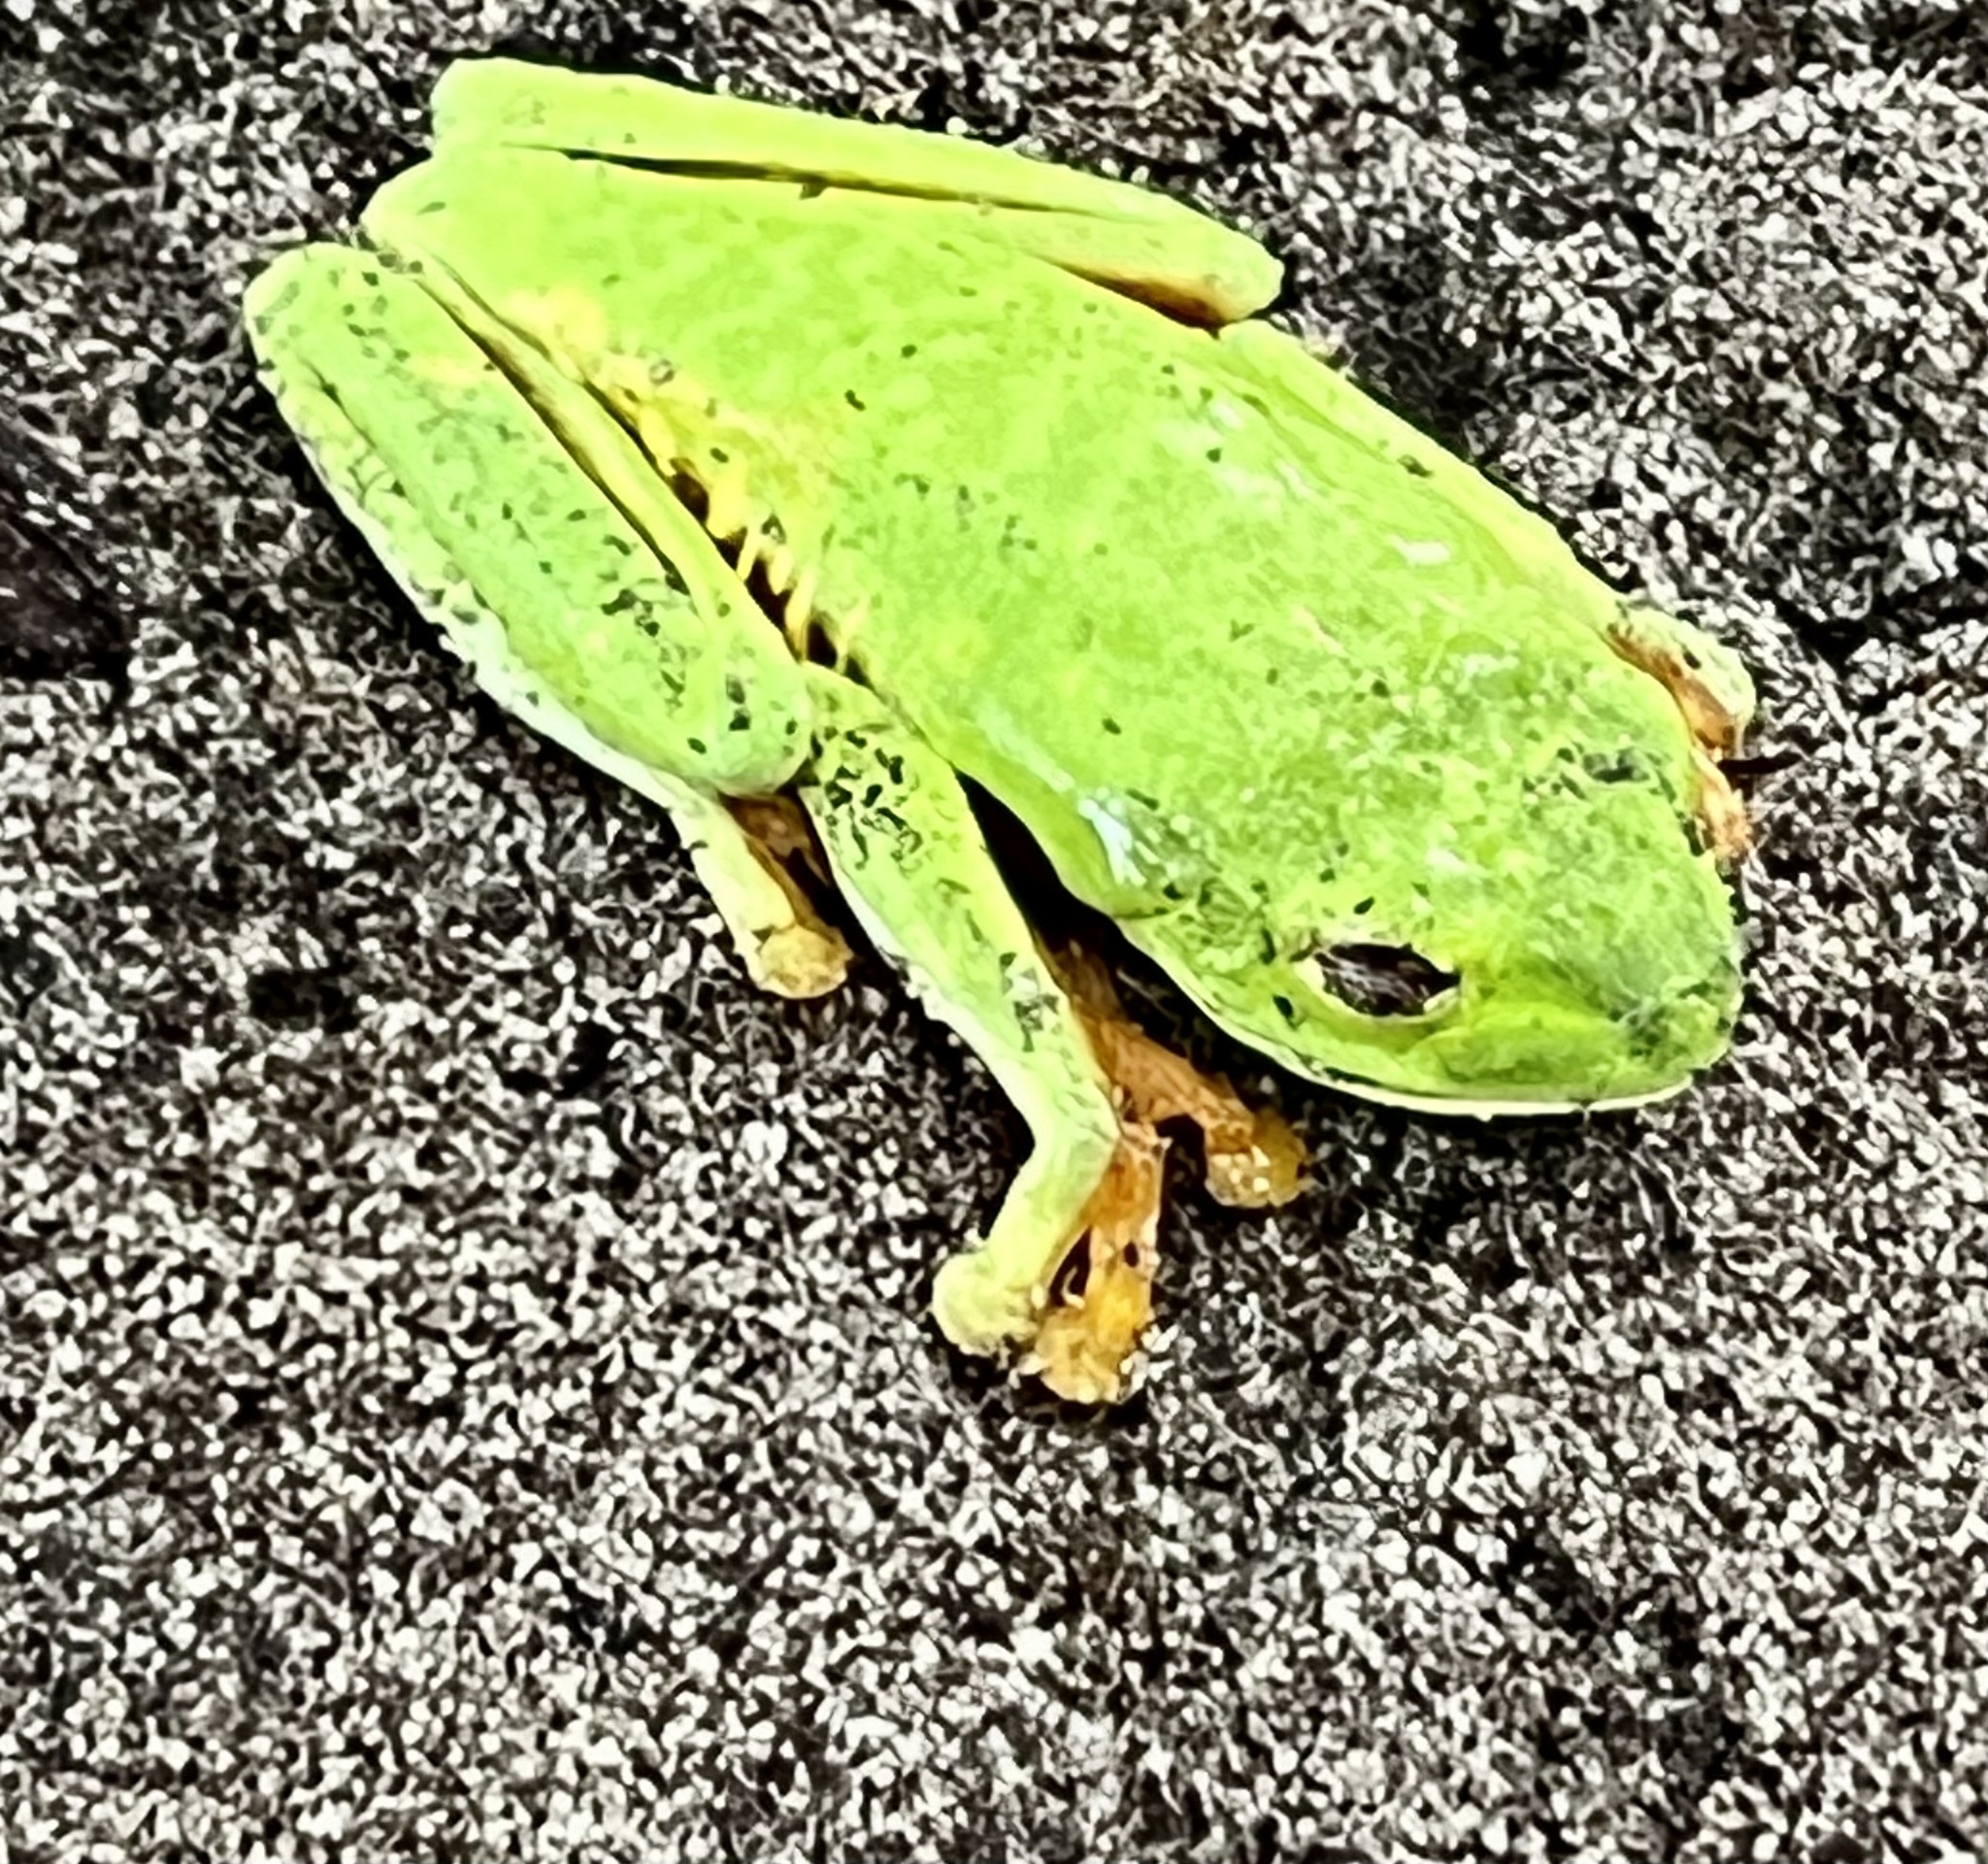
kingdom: Animalia
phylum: Chordata
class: Amphibia
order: Anura
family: Phyllomedusidae
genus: Agalychnis
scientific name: Agalychnis callidryas
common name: Red-eyed treefrog
